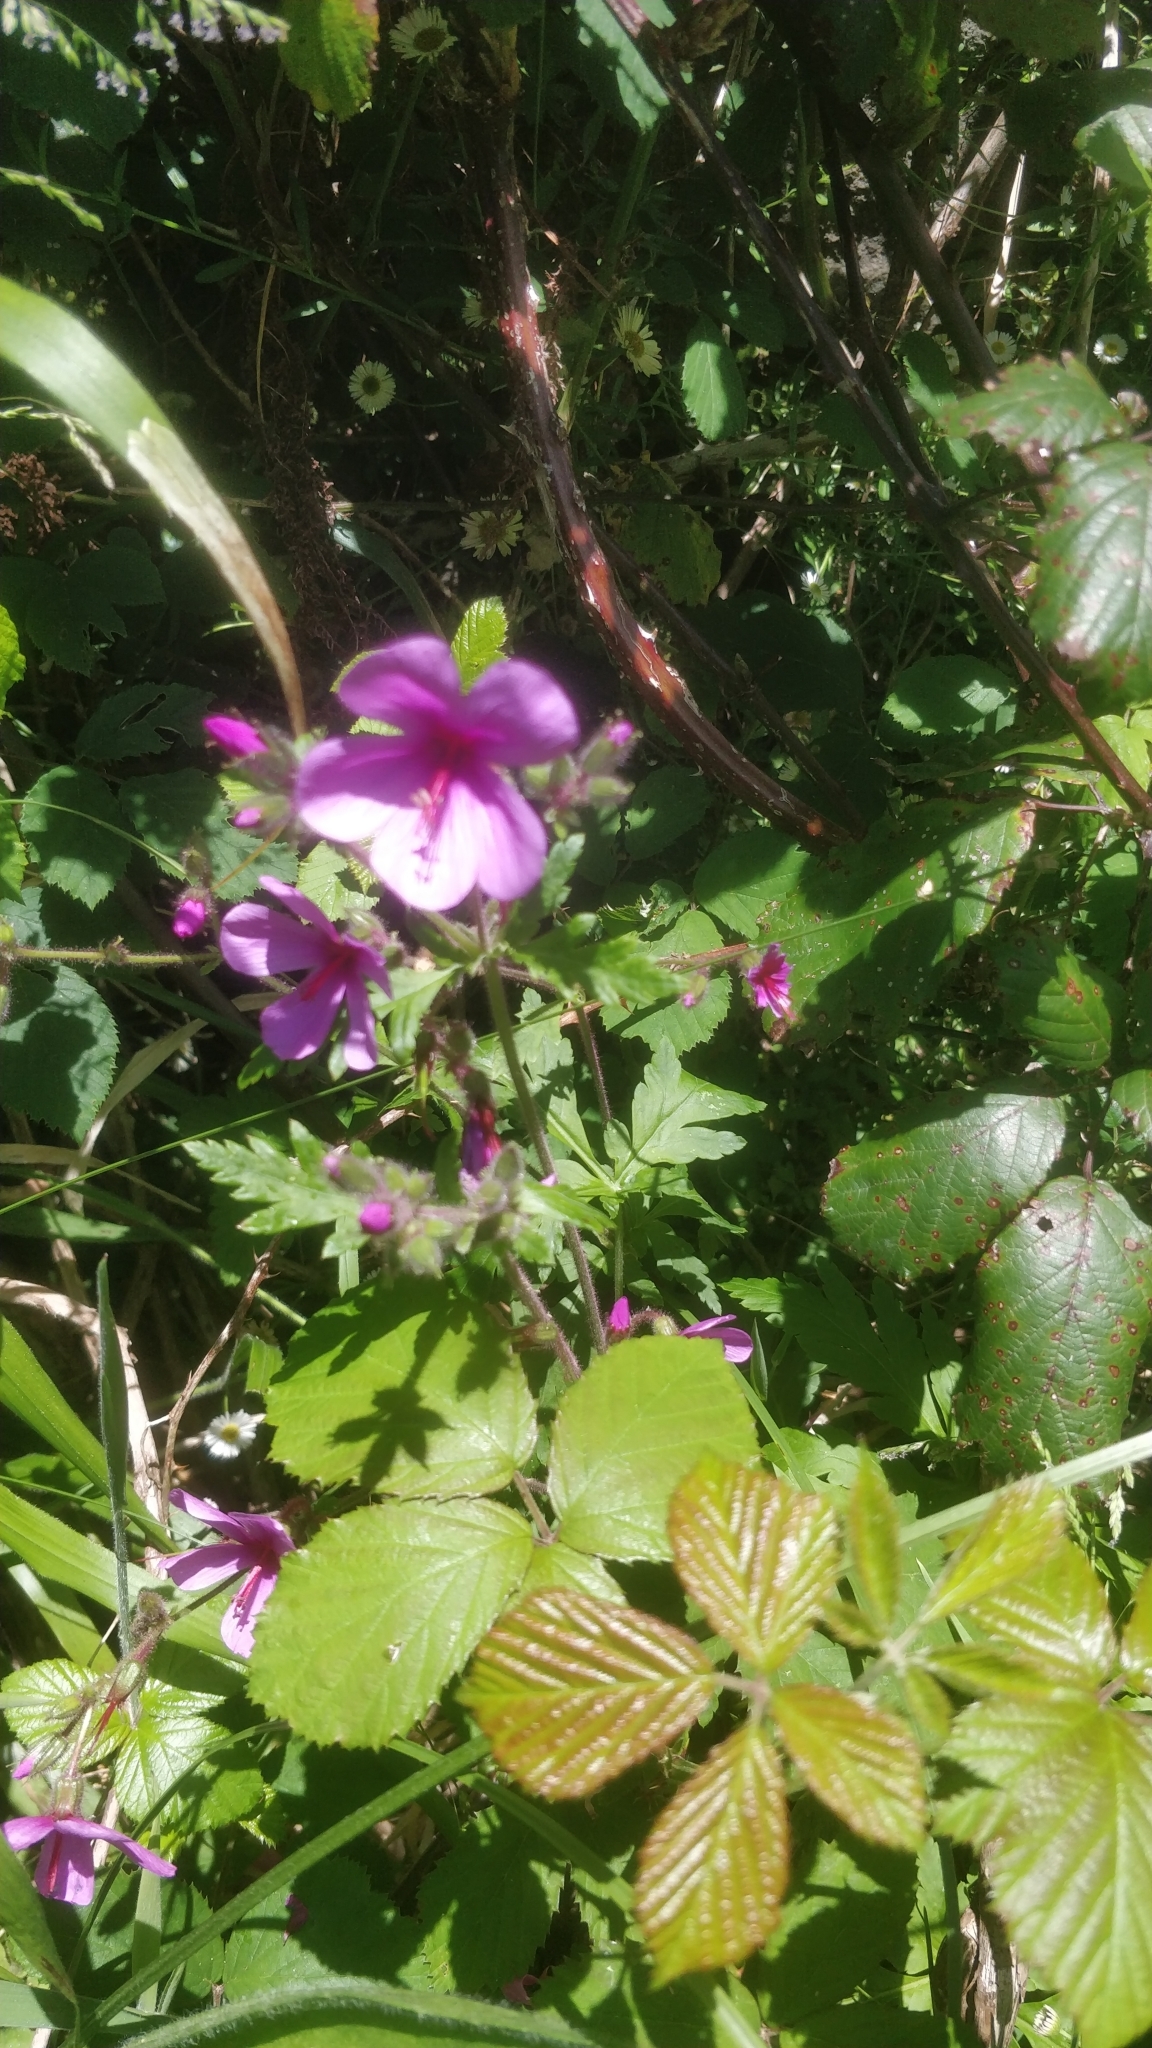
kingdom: Plantae
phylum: Tracheophyta
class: Magnoliopsida
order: Geraniales
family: Geraniaceae
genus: Geranium
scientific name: Geranium palmatum
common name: Canary island geranium
